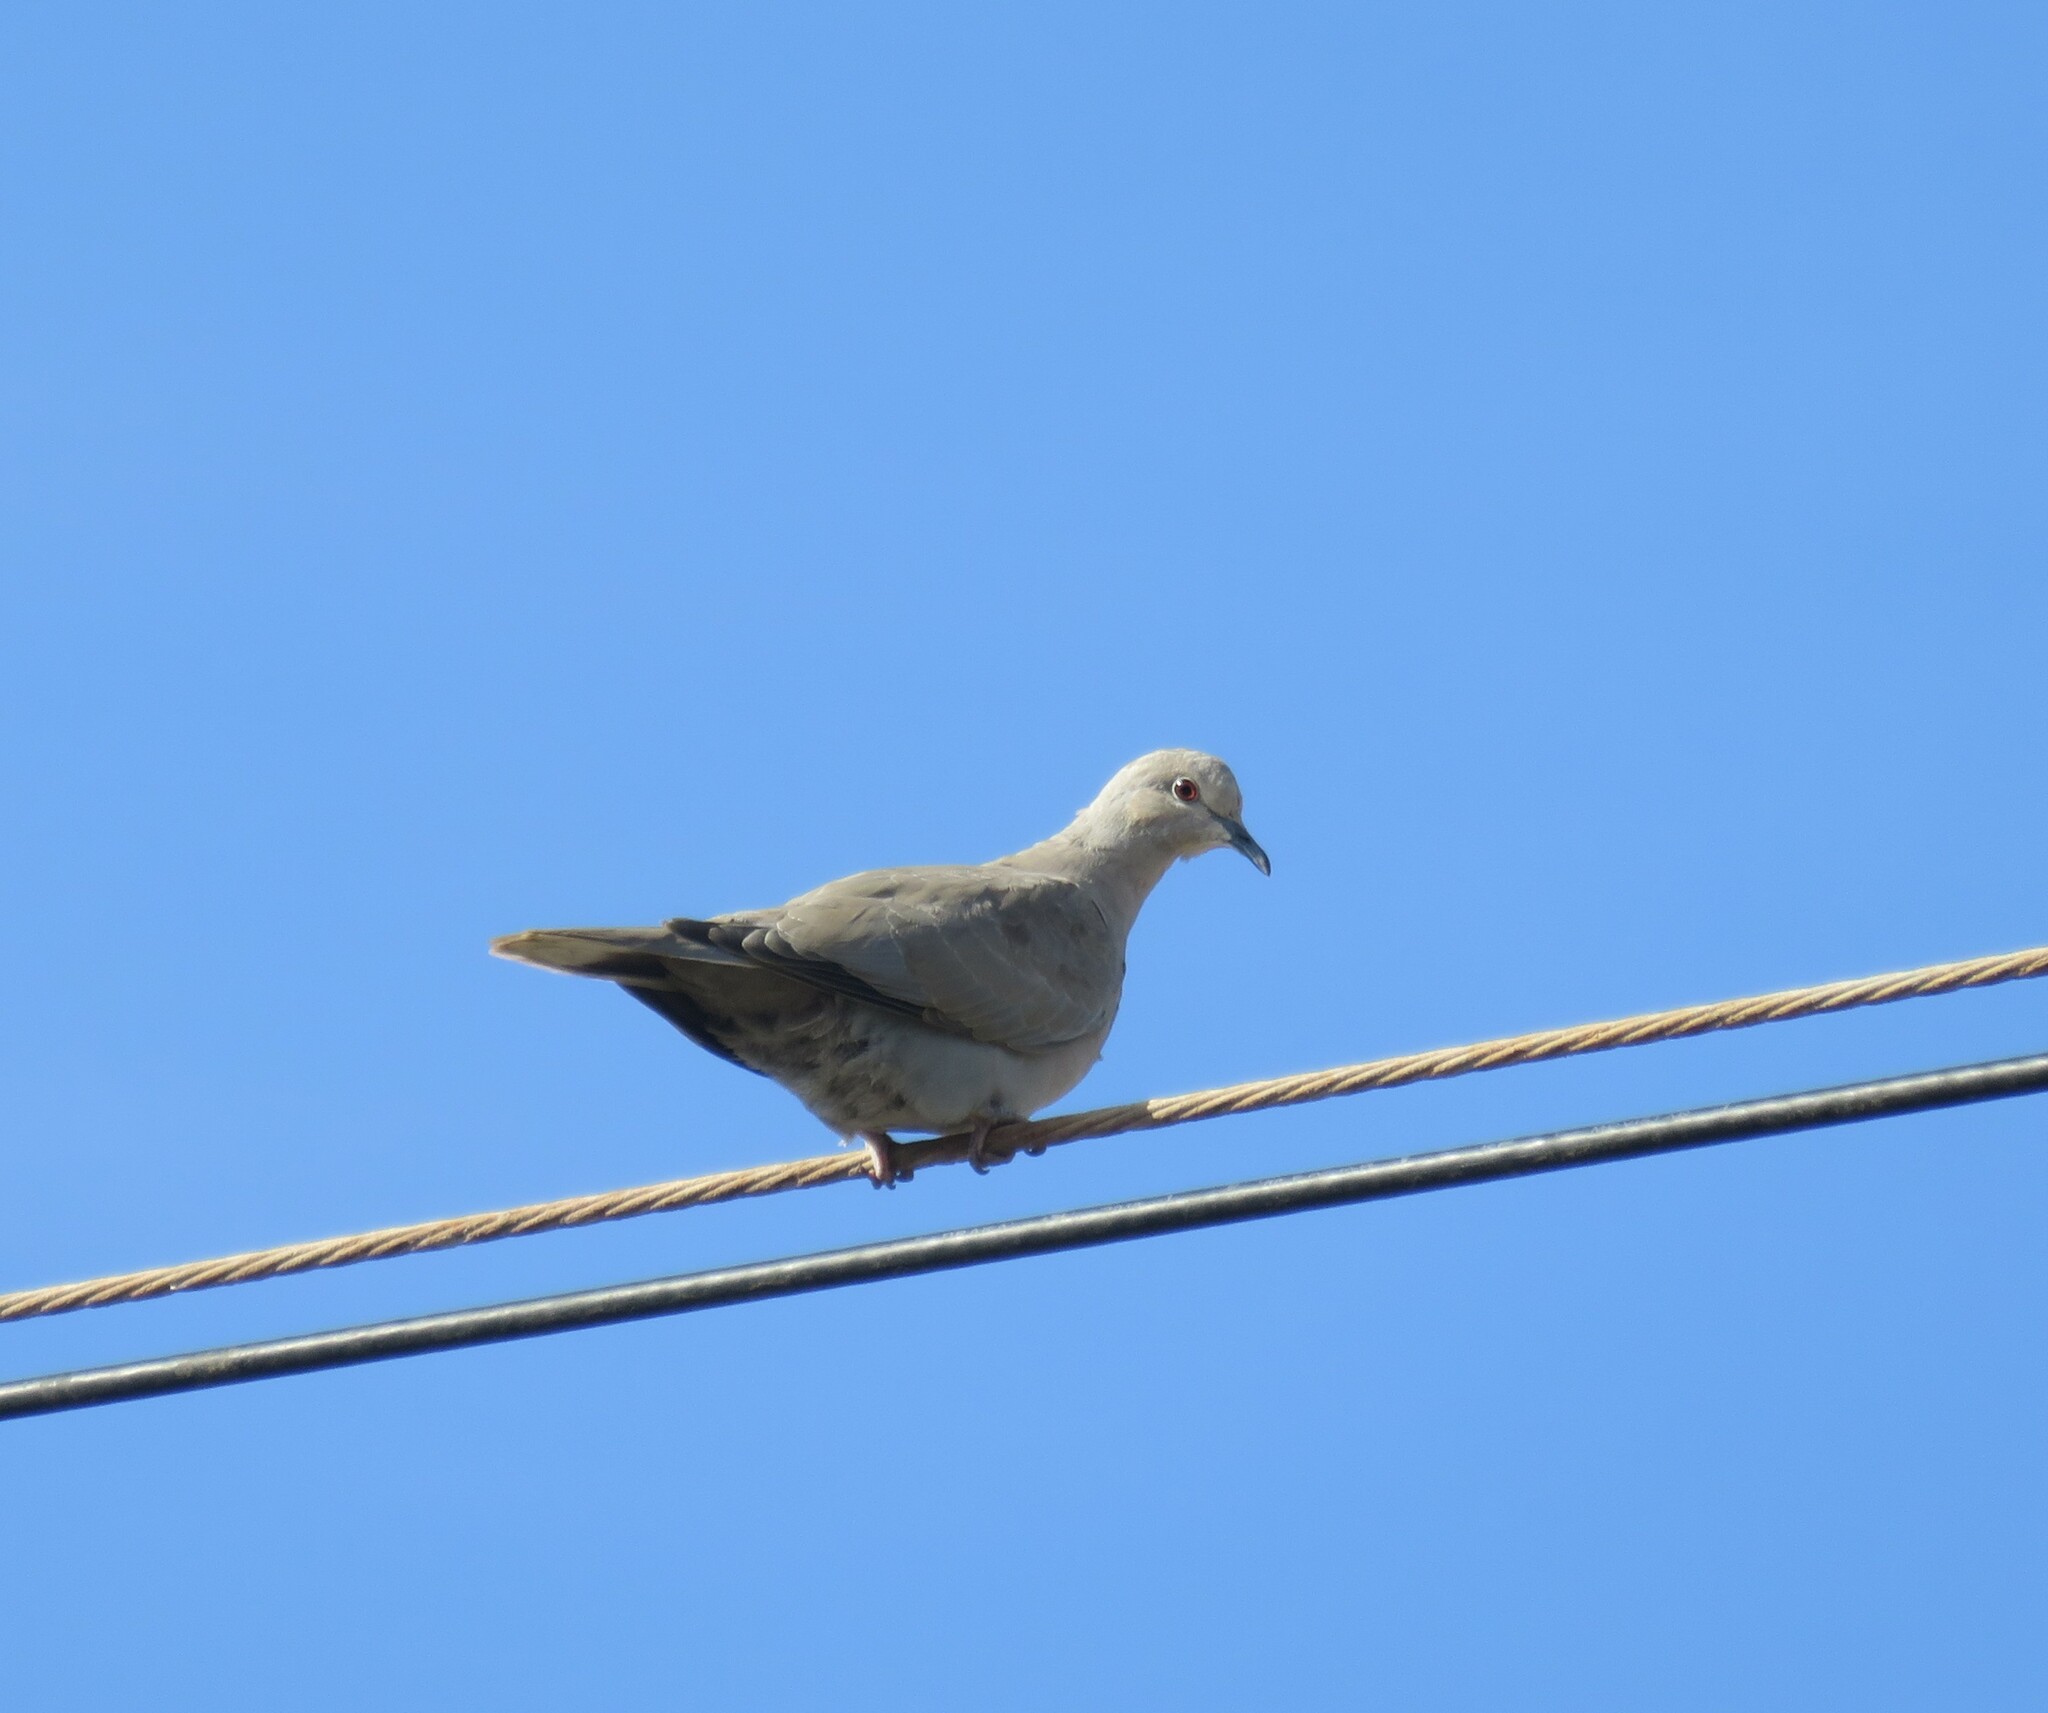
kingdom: Animalia
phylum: Chordata
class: Aves
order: Columbiformes
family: Columbidae
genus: Streptopelia
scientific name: Streptopelia decaocto
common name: Eurasian collared dove
